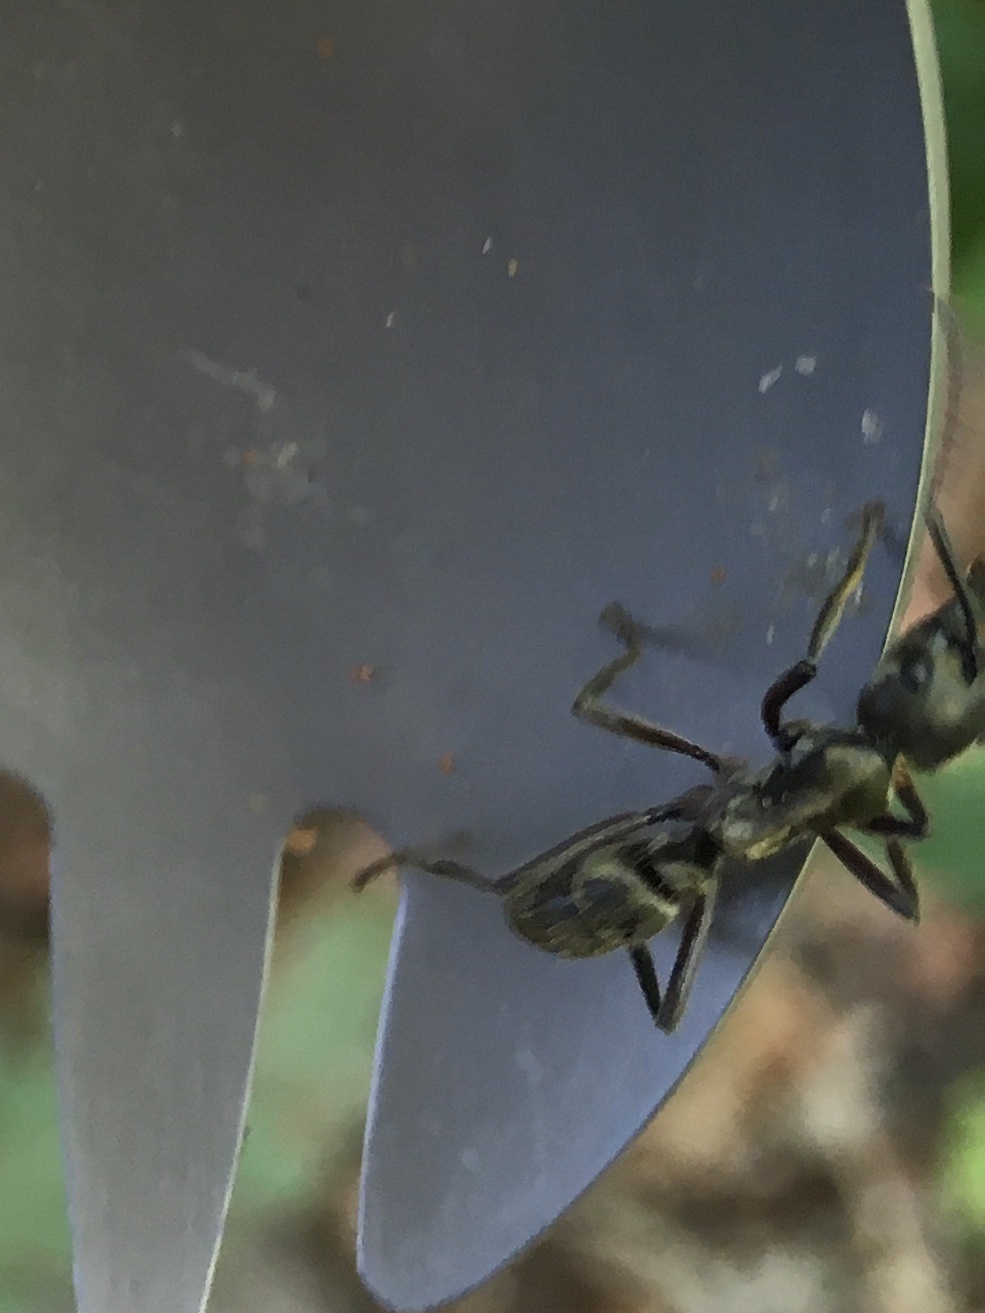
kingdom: Animalia
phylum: Arthropoda
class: Insecta
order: Hymenoptera
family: Formicidae
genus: Pachycondyla
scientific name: Pachycondyla villosa
